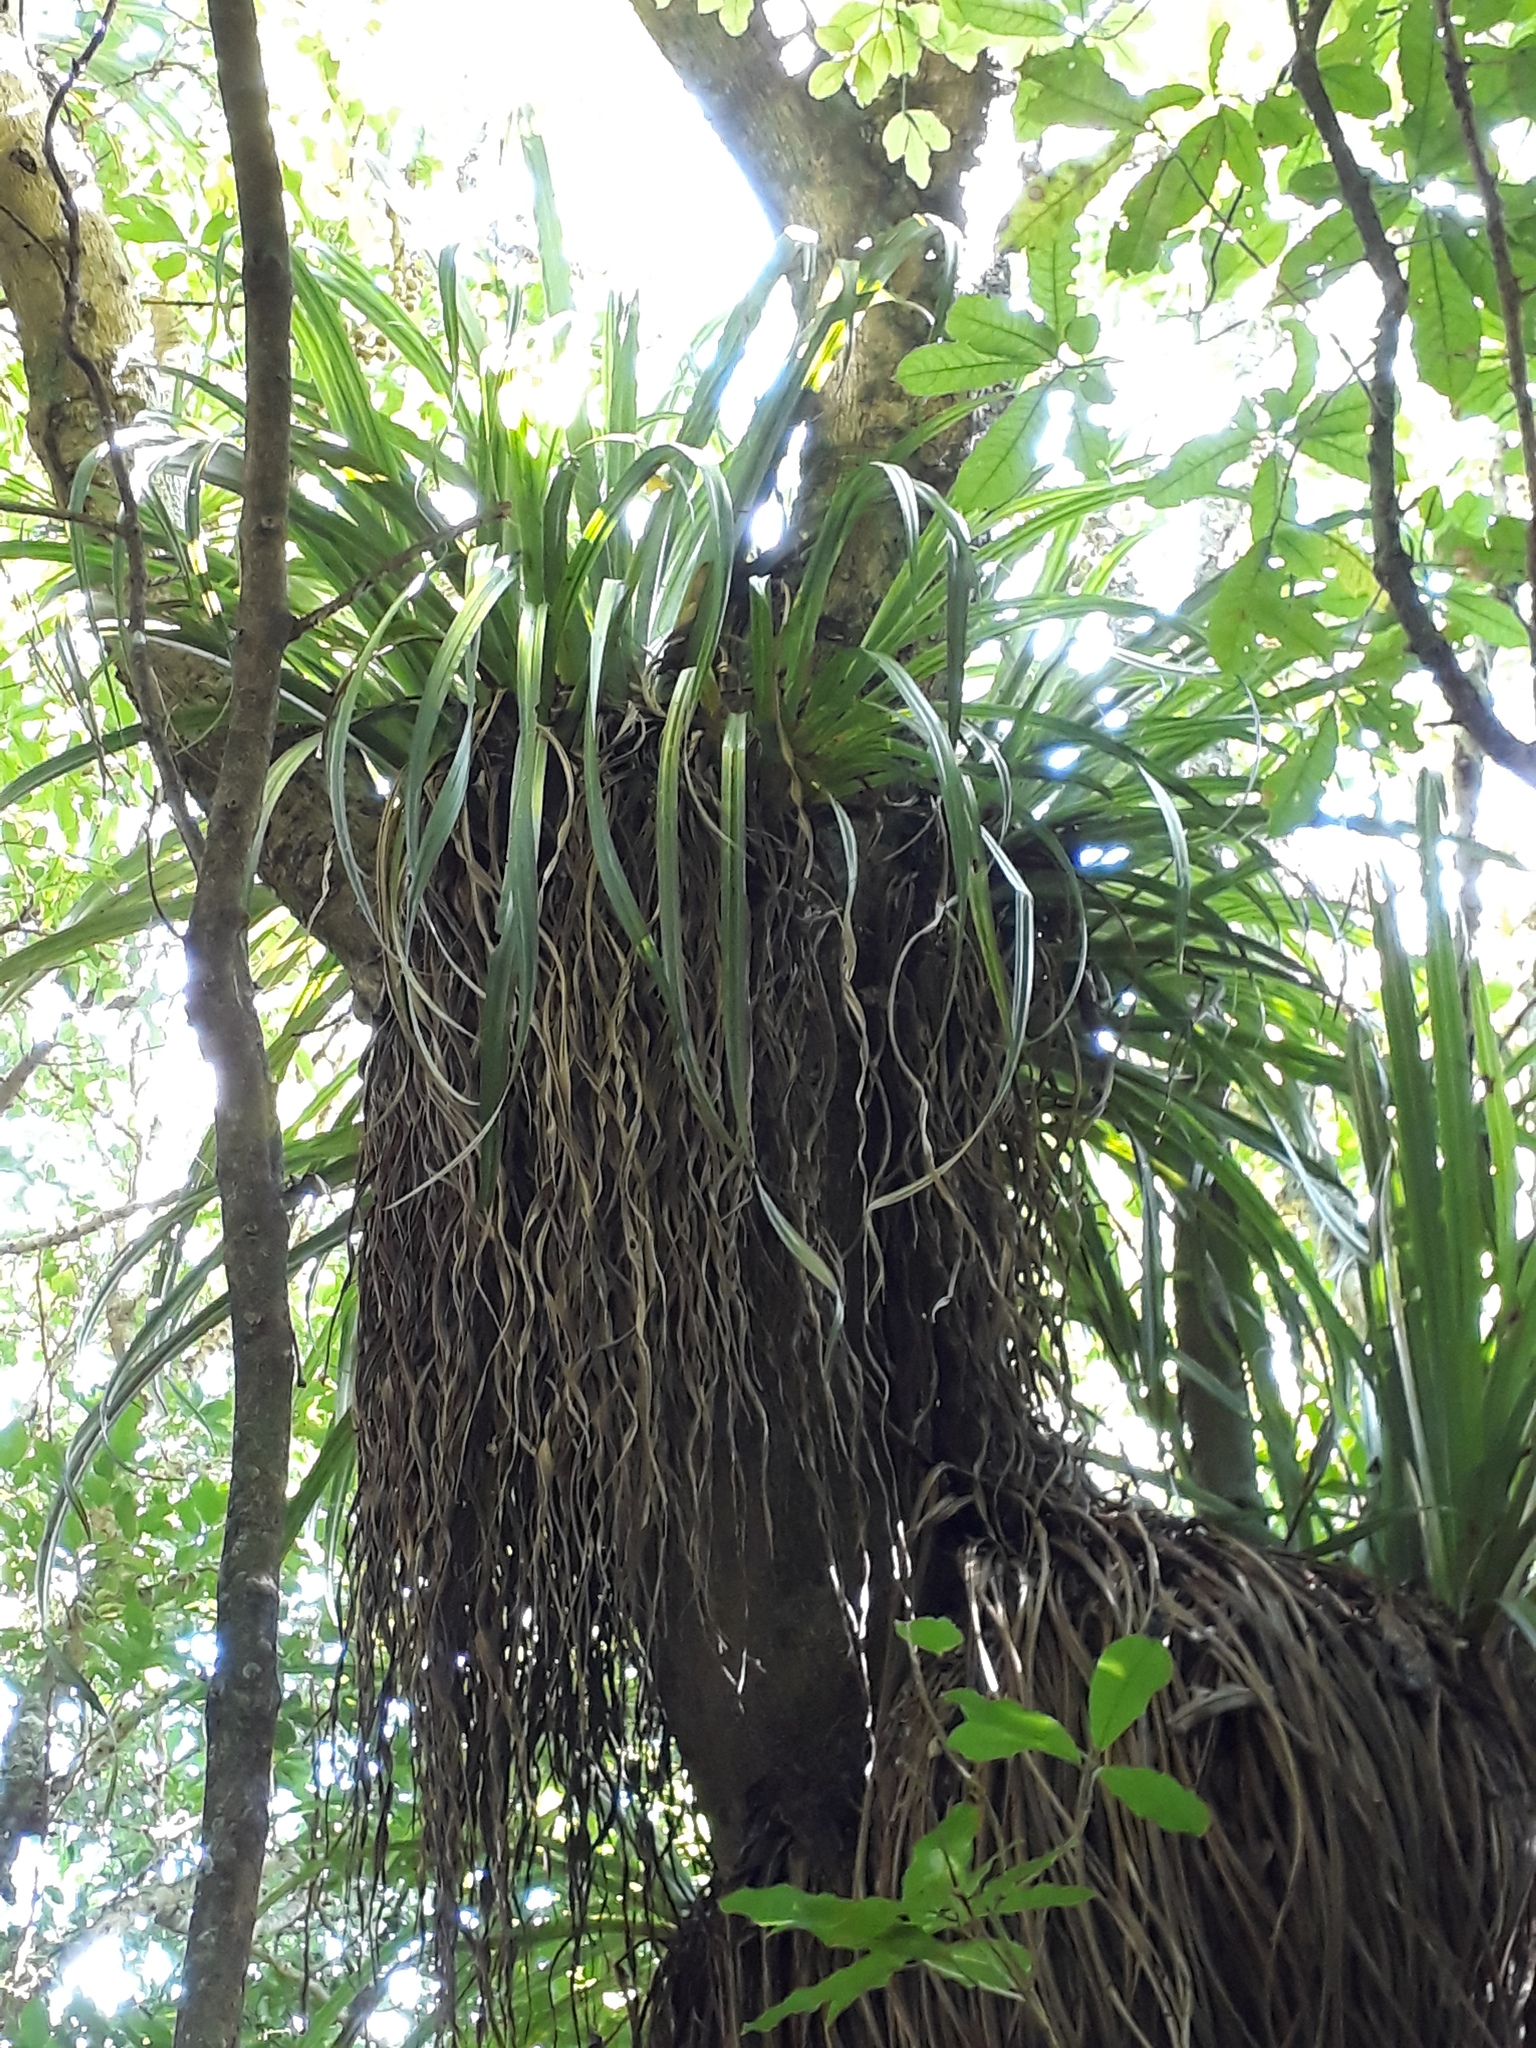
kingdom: Plantae
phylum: Tracheophyta
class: Liliopsida
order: Asparagales
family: Asteliaceae
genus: Astelia
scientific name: Astelia hastata
